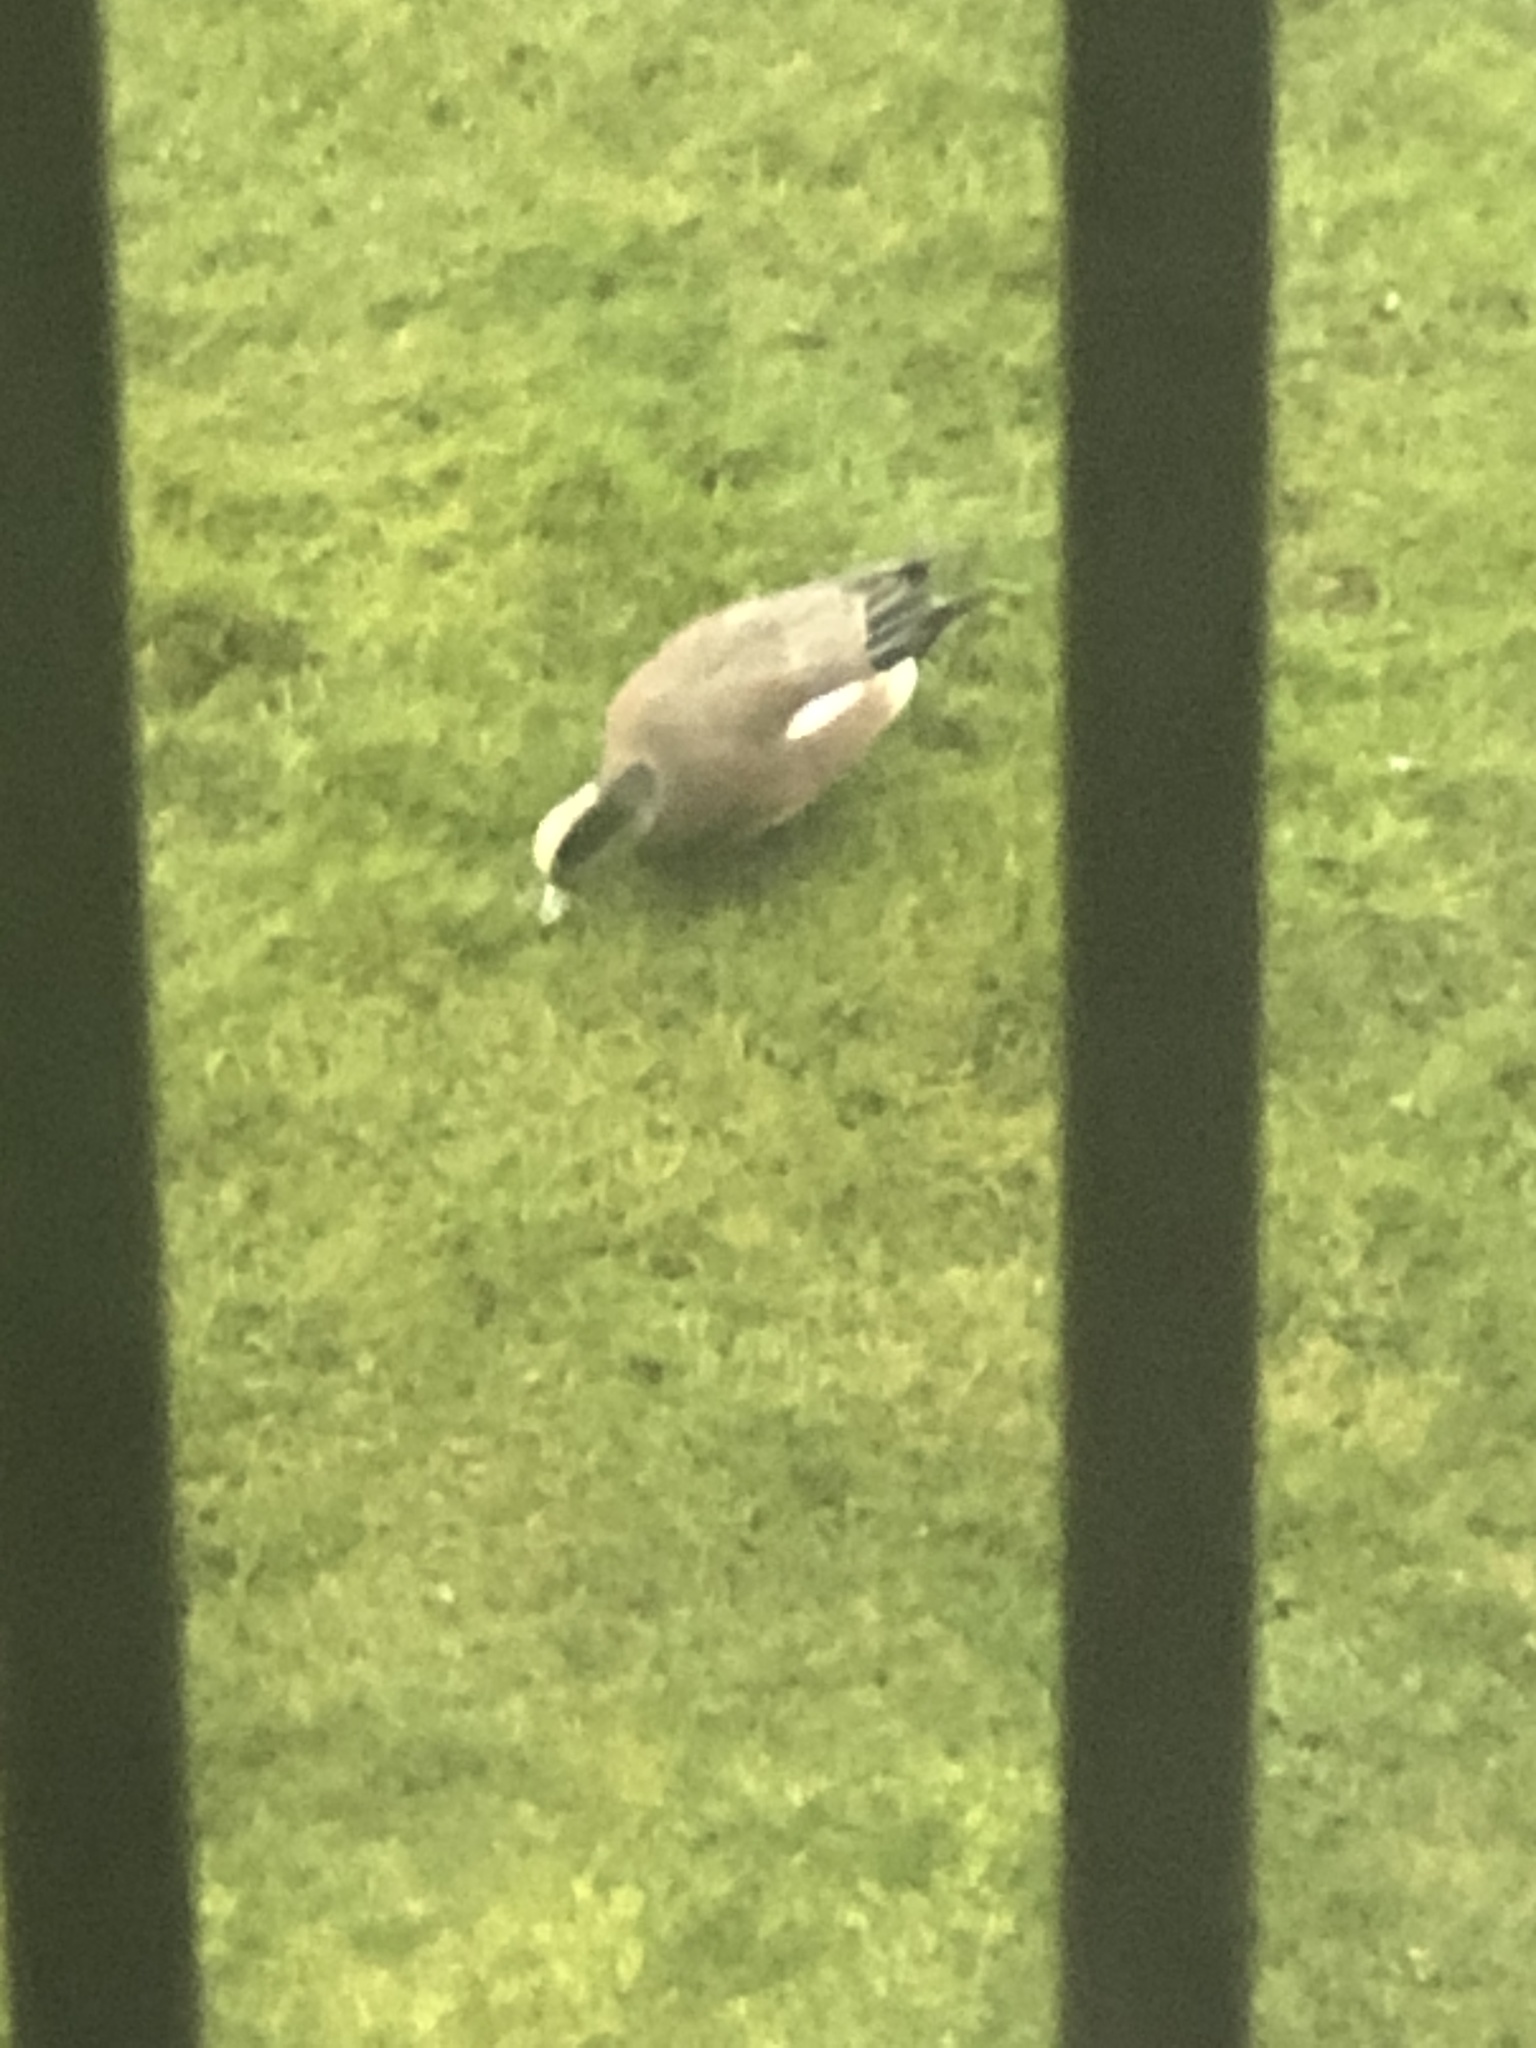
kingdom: Animalia
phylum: Chordata
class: Aves
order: Anseriformes
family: Anatidae
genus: Mareca
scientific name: Mareca americana
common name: American wigeon
